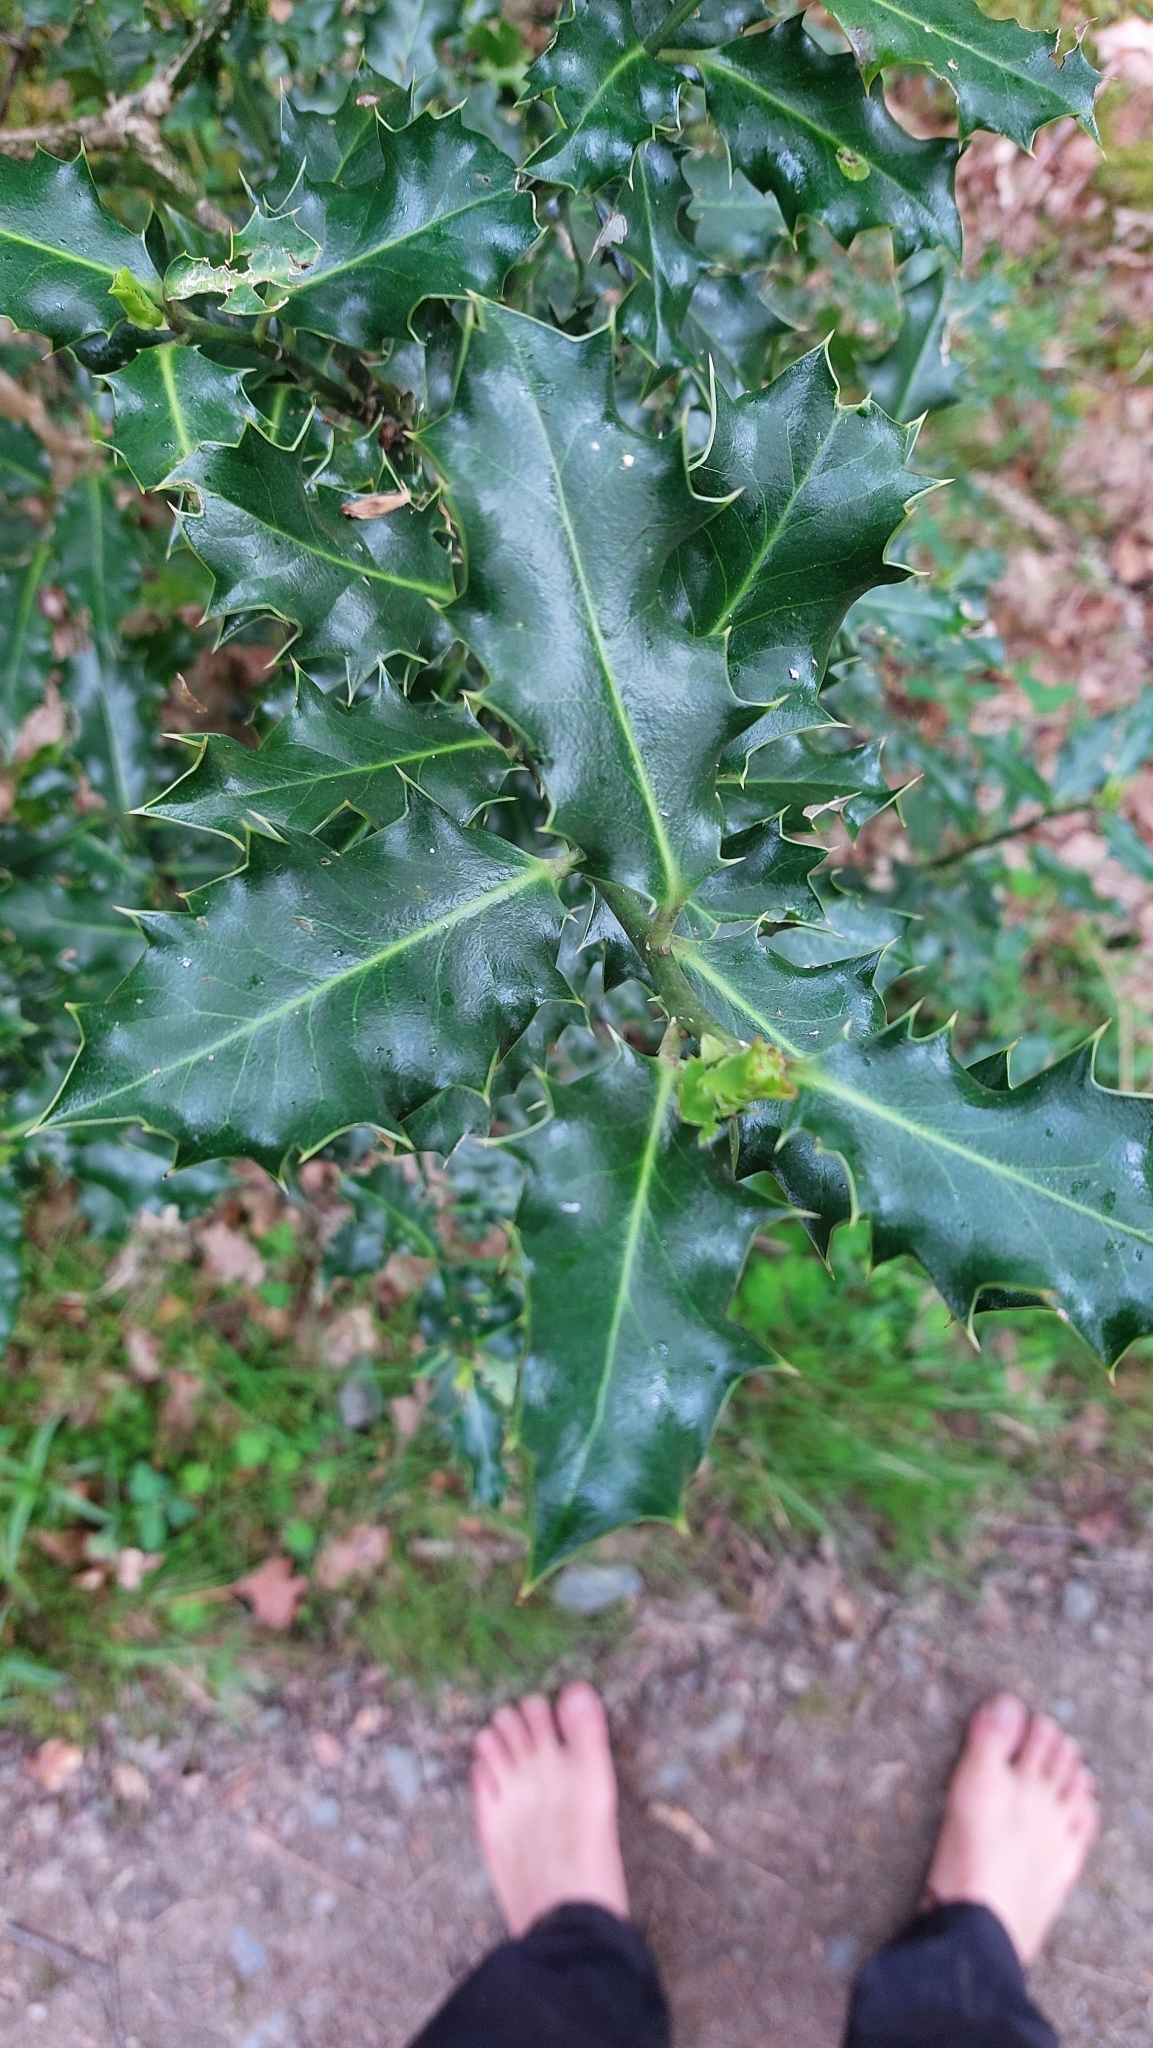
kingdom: Plantae
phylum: Tracheophyta
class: Magnoliopsida
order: Aquifoliales
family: Aquifoliaceae
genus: Ilex
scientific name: Ilex aquifolium
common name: English holly
